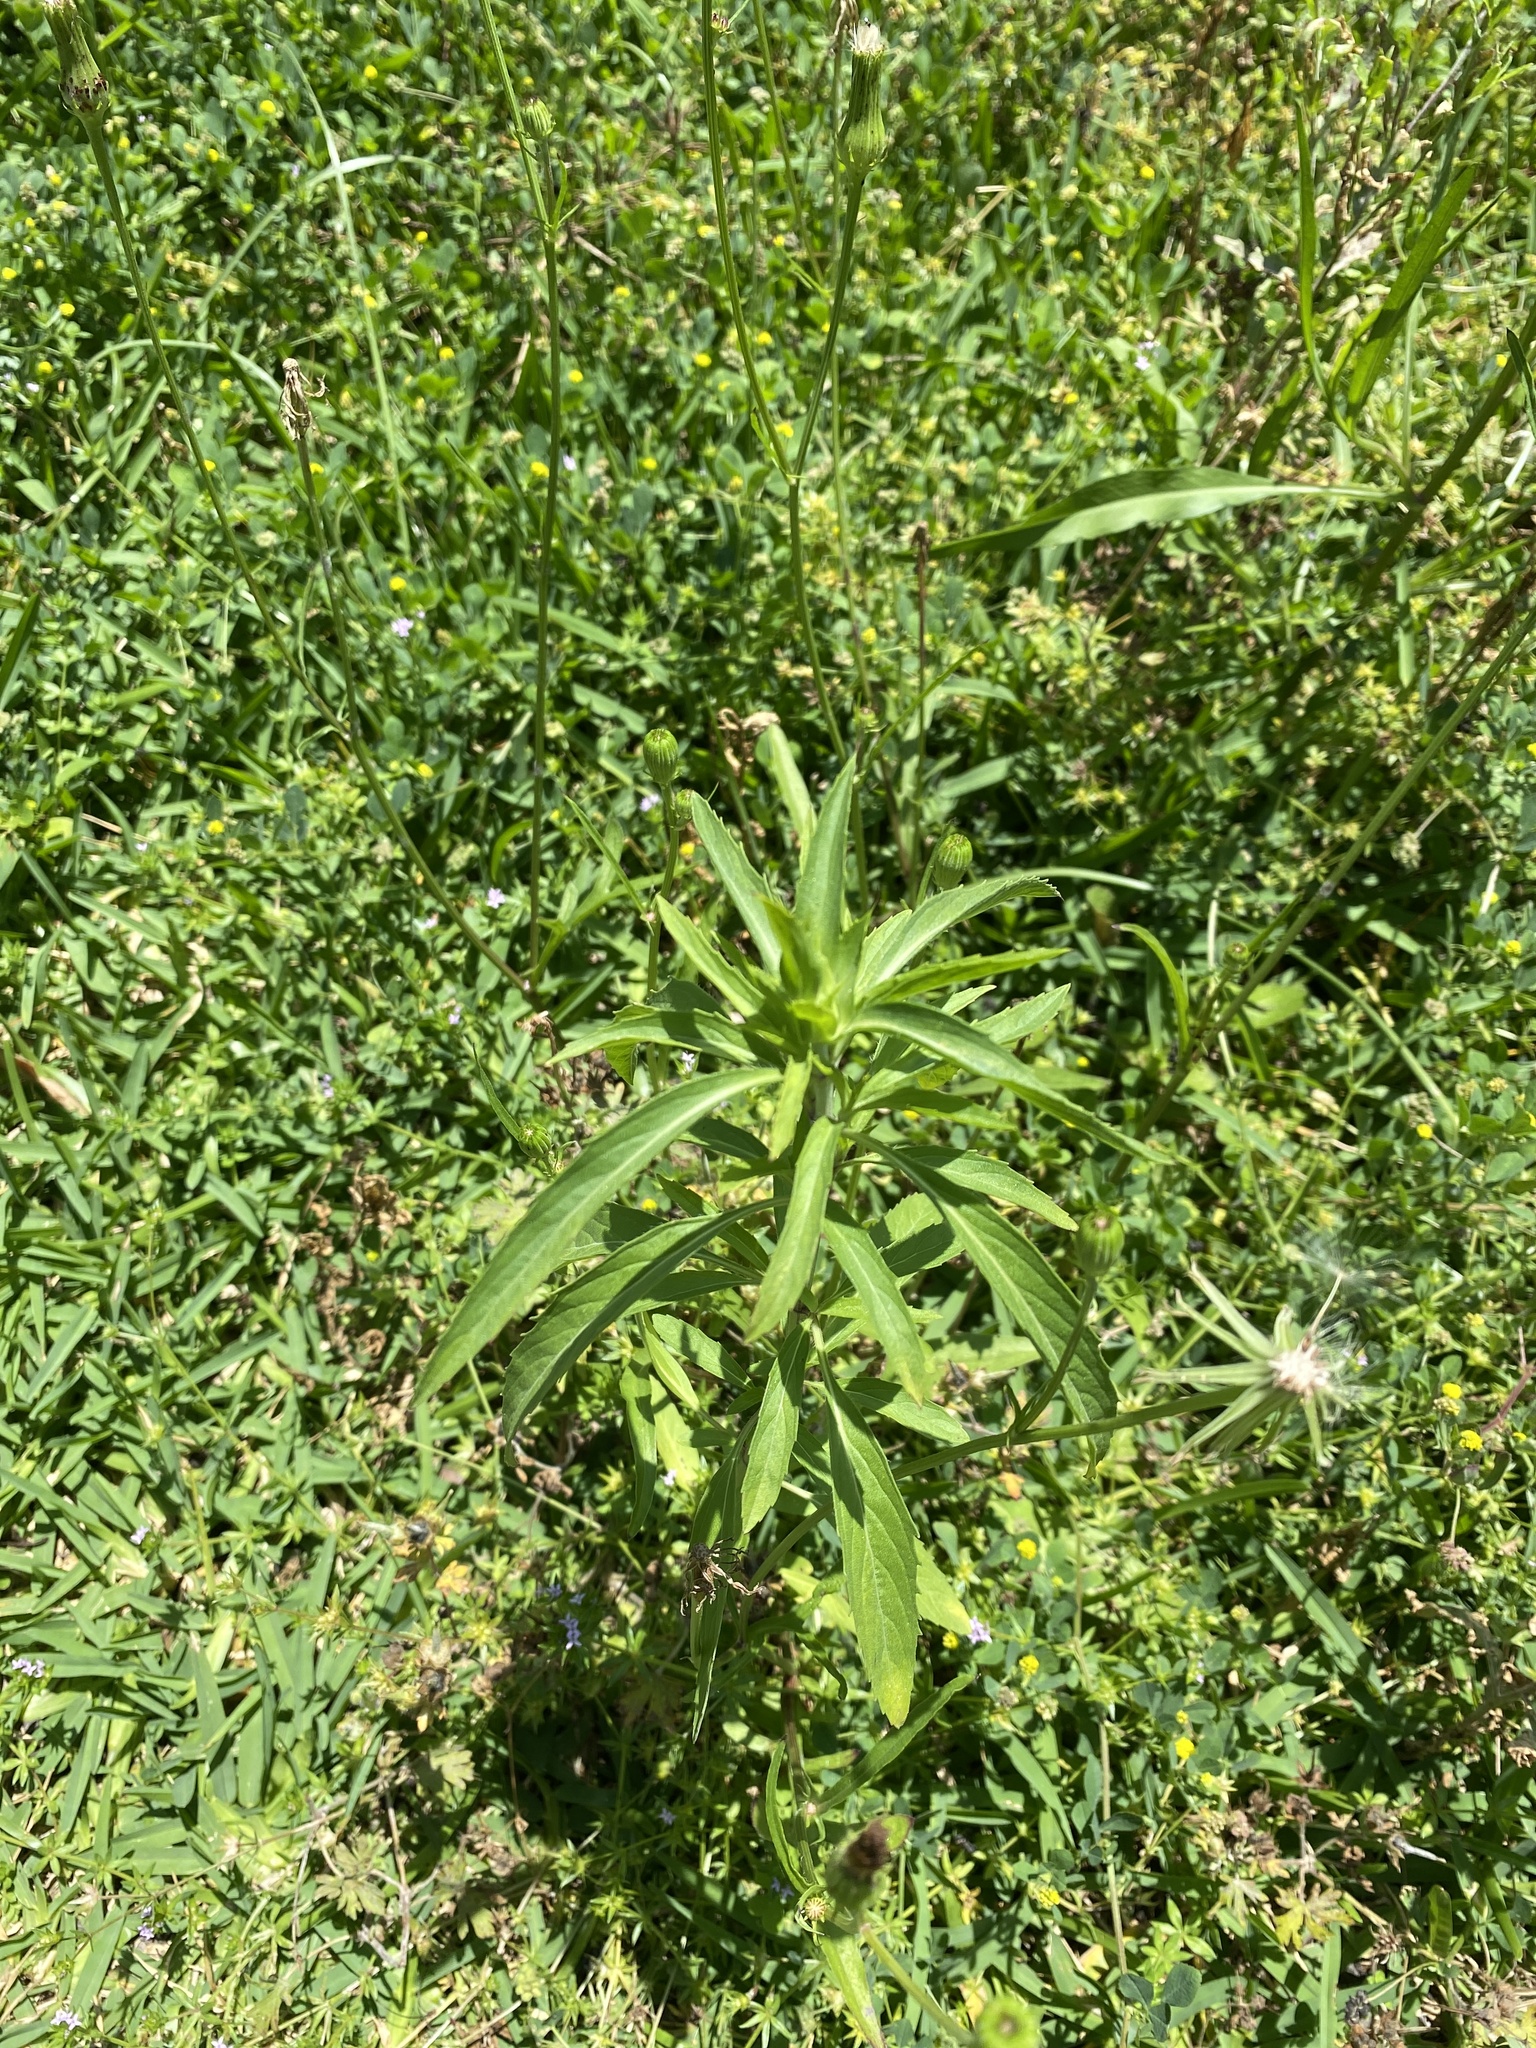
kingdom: Plantae
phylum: Tracheophyta
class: Magnoliopsida
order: Lamiales
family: Lamiaceae
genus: Monarda
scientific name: Monarda citriodora
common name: Lemon beebalm
